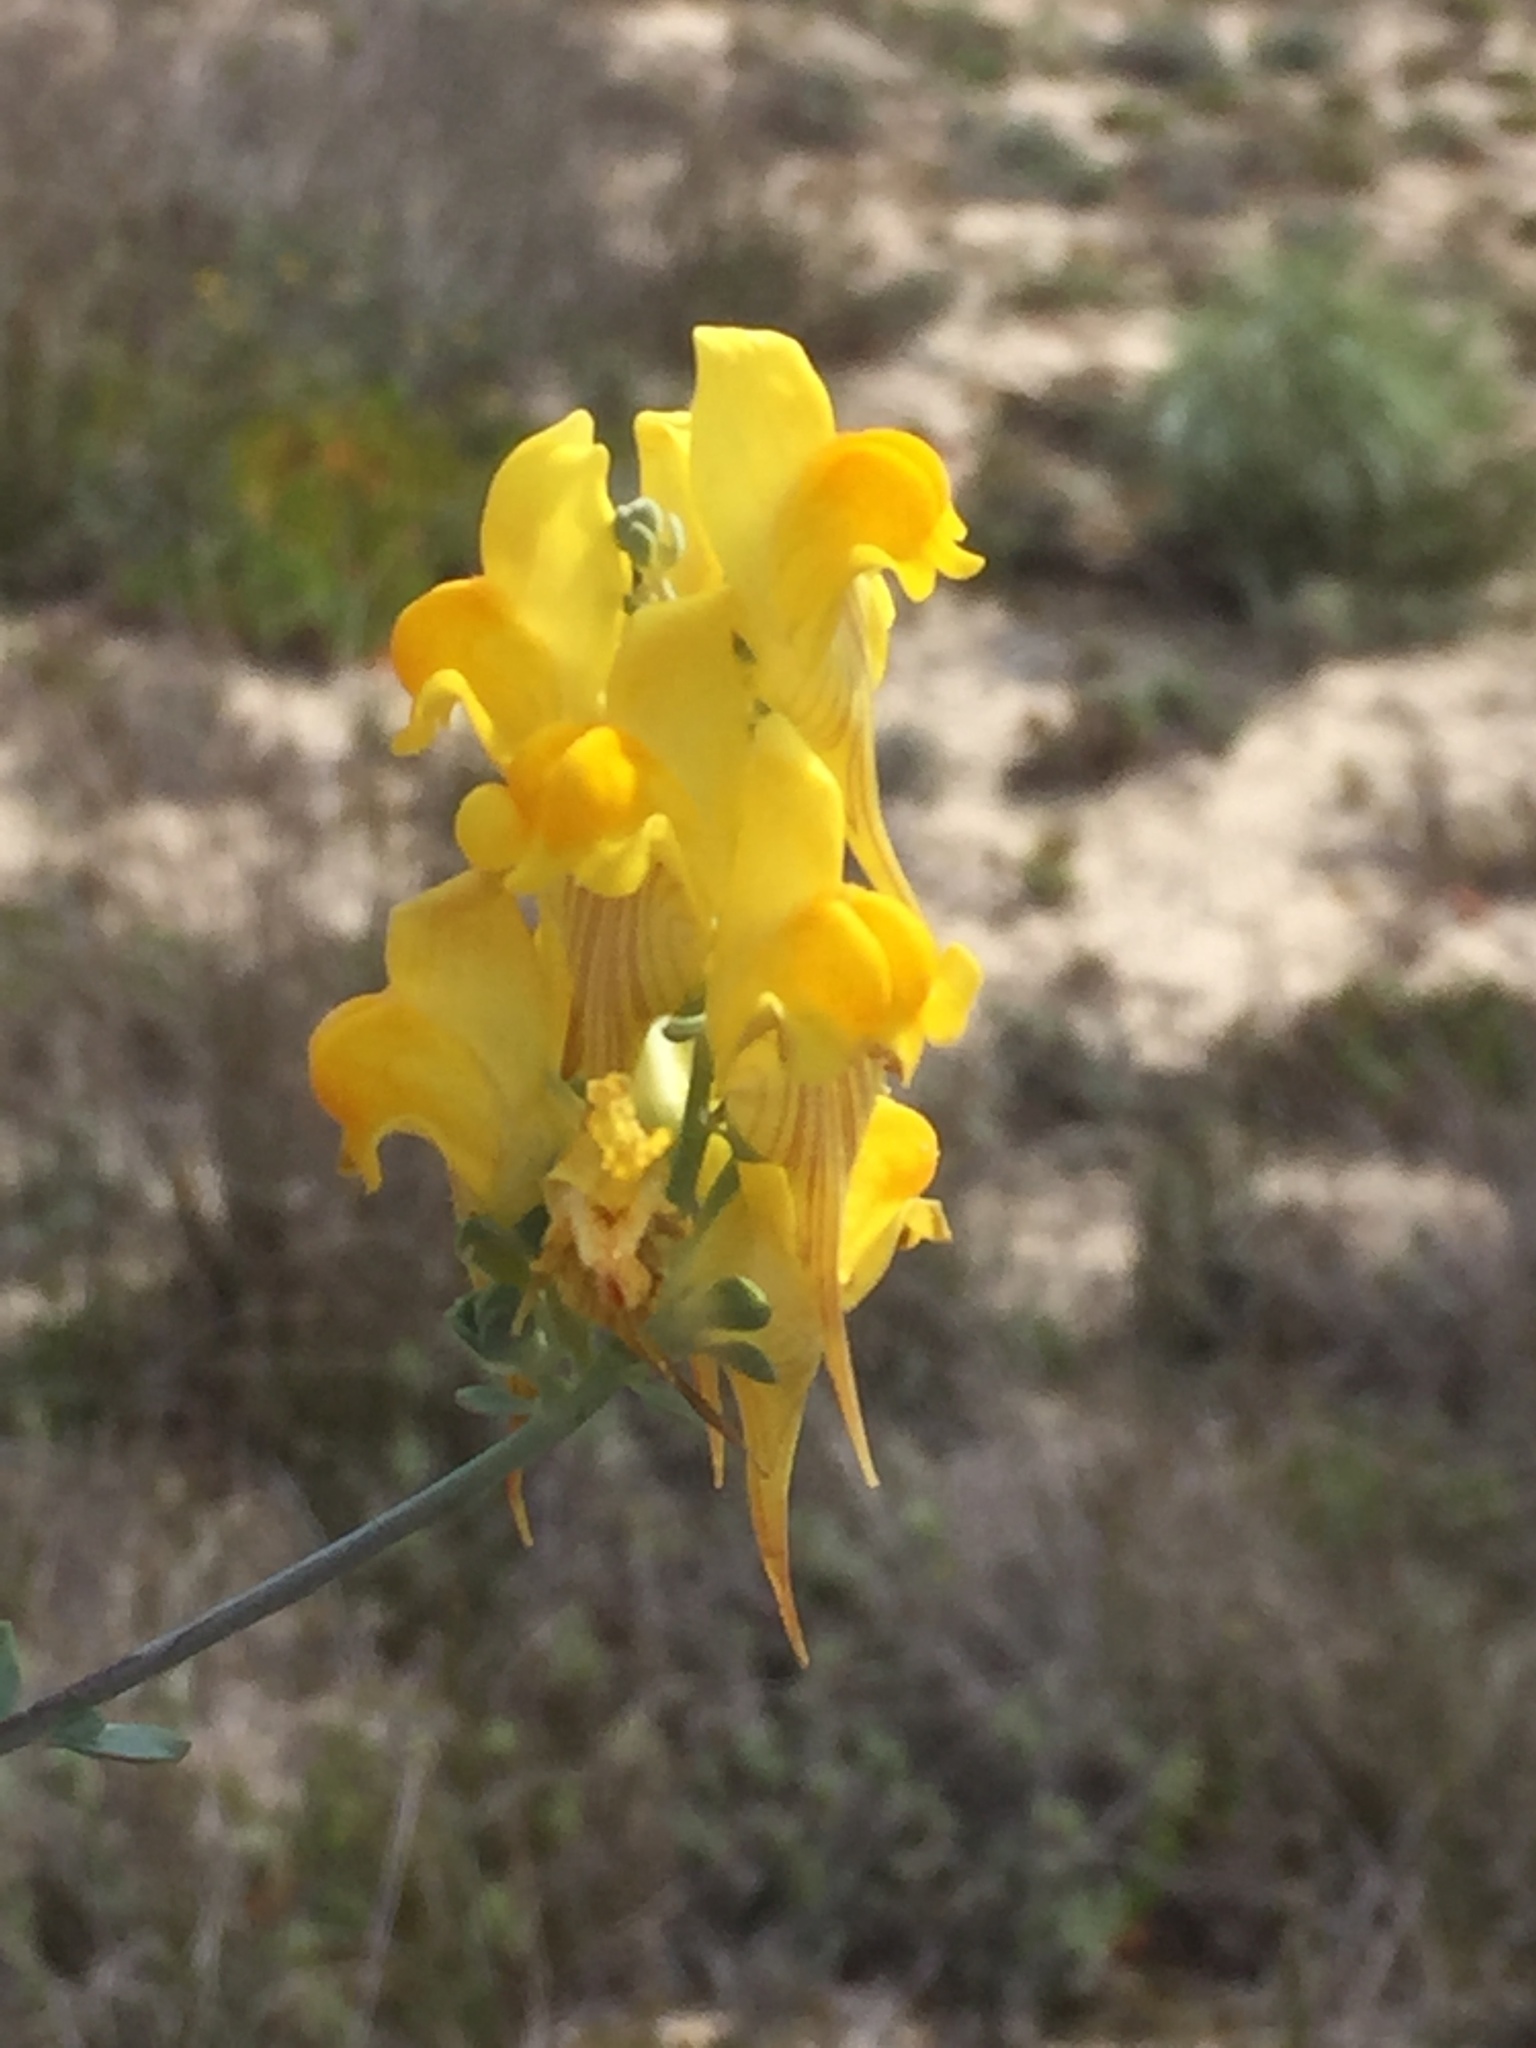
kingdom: Plantae
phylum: Tracheophyta
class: Magnoliopsida
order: Lamiales
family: Plantaginaceae
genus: Linaria
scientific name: Linaria polygalifolia
